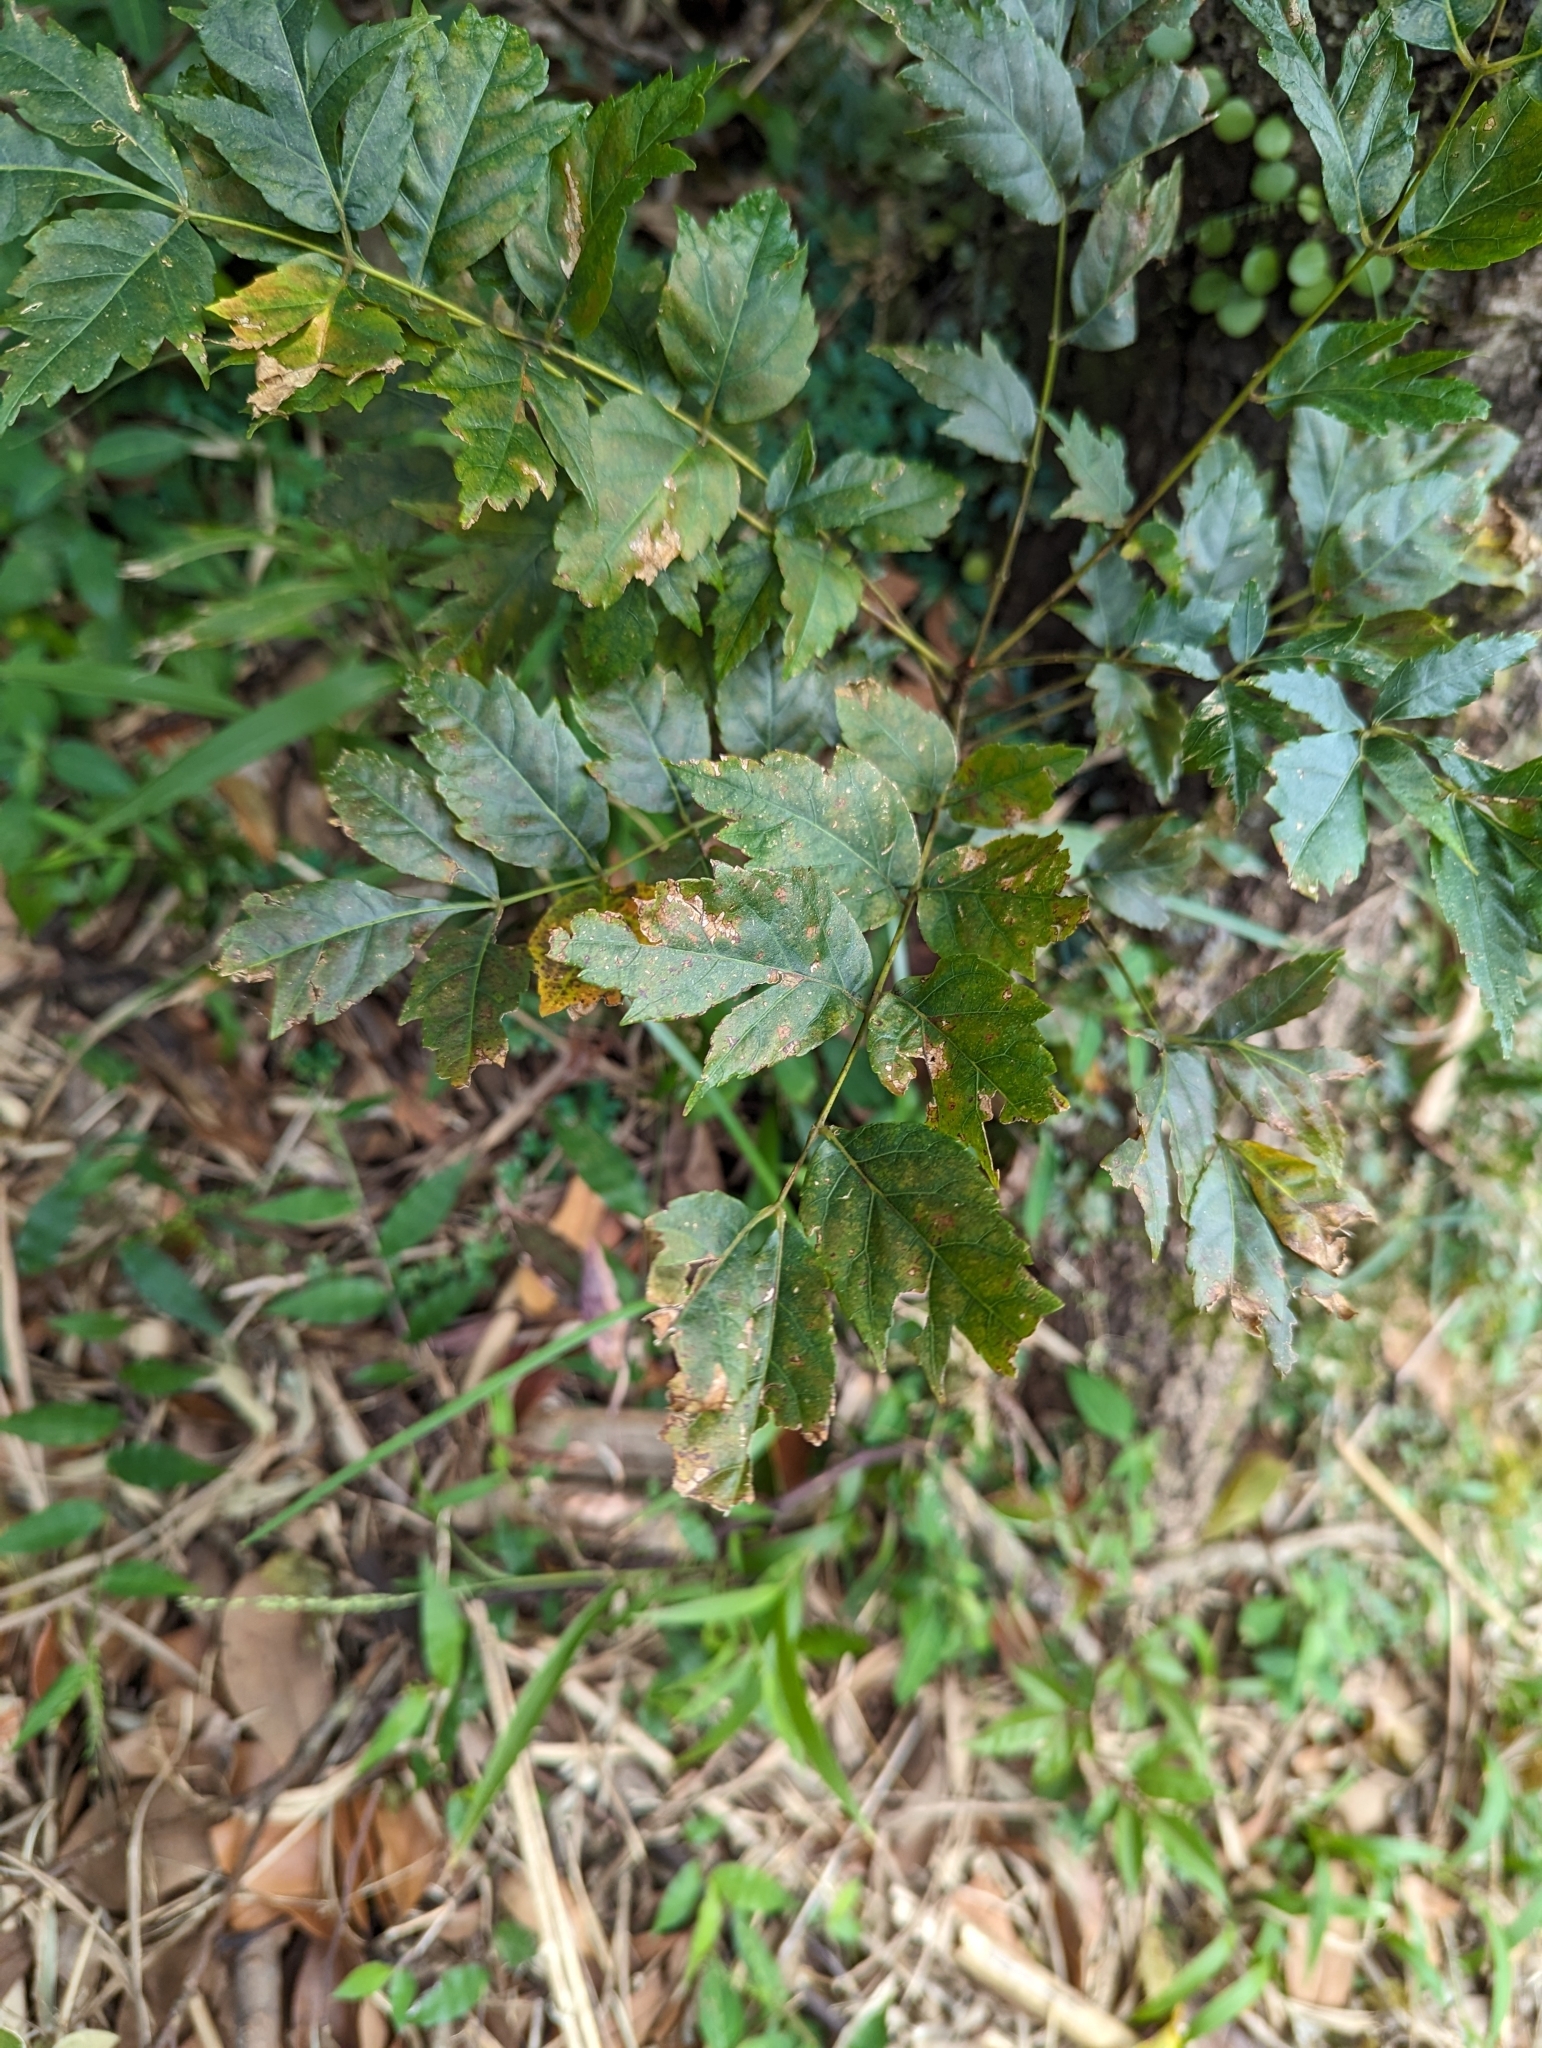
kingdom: Plantae
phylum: Tracheophyta
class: Magnoliopsida
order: Sapindales
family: Simaroubaceae
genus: Picrasma
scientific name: Picrasma quassioides
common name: Shurni
